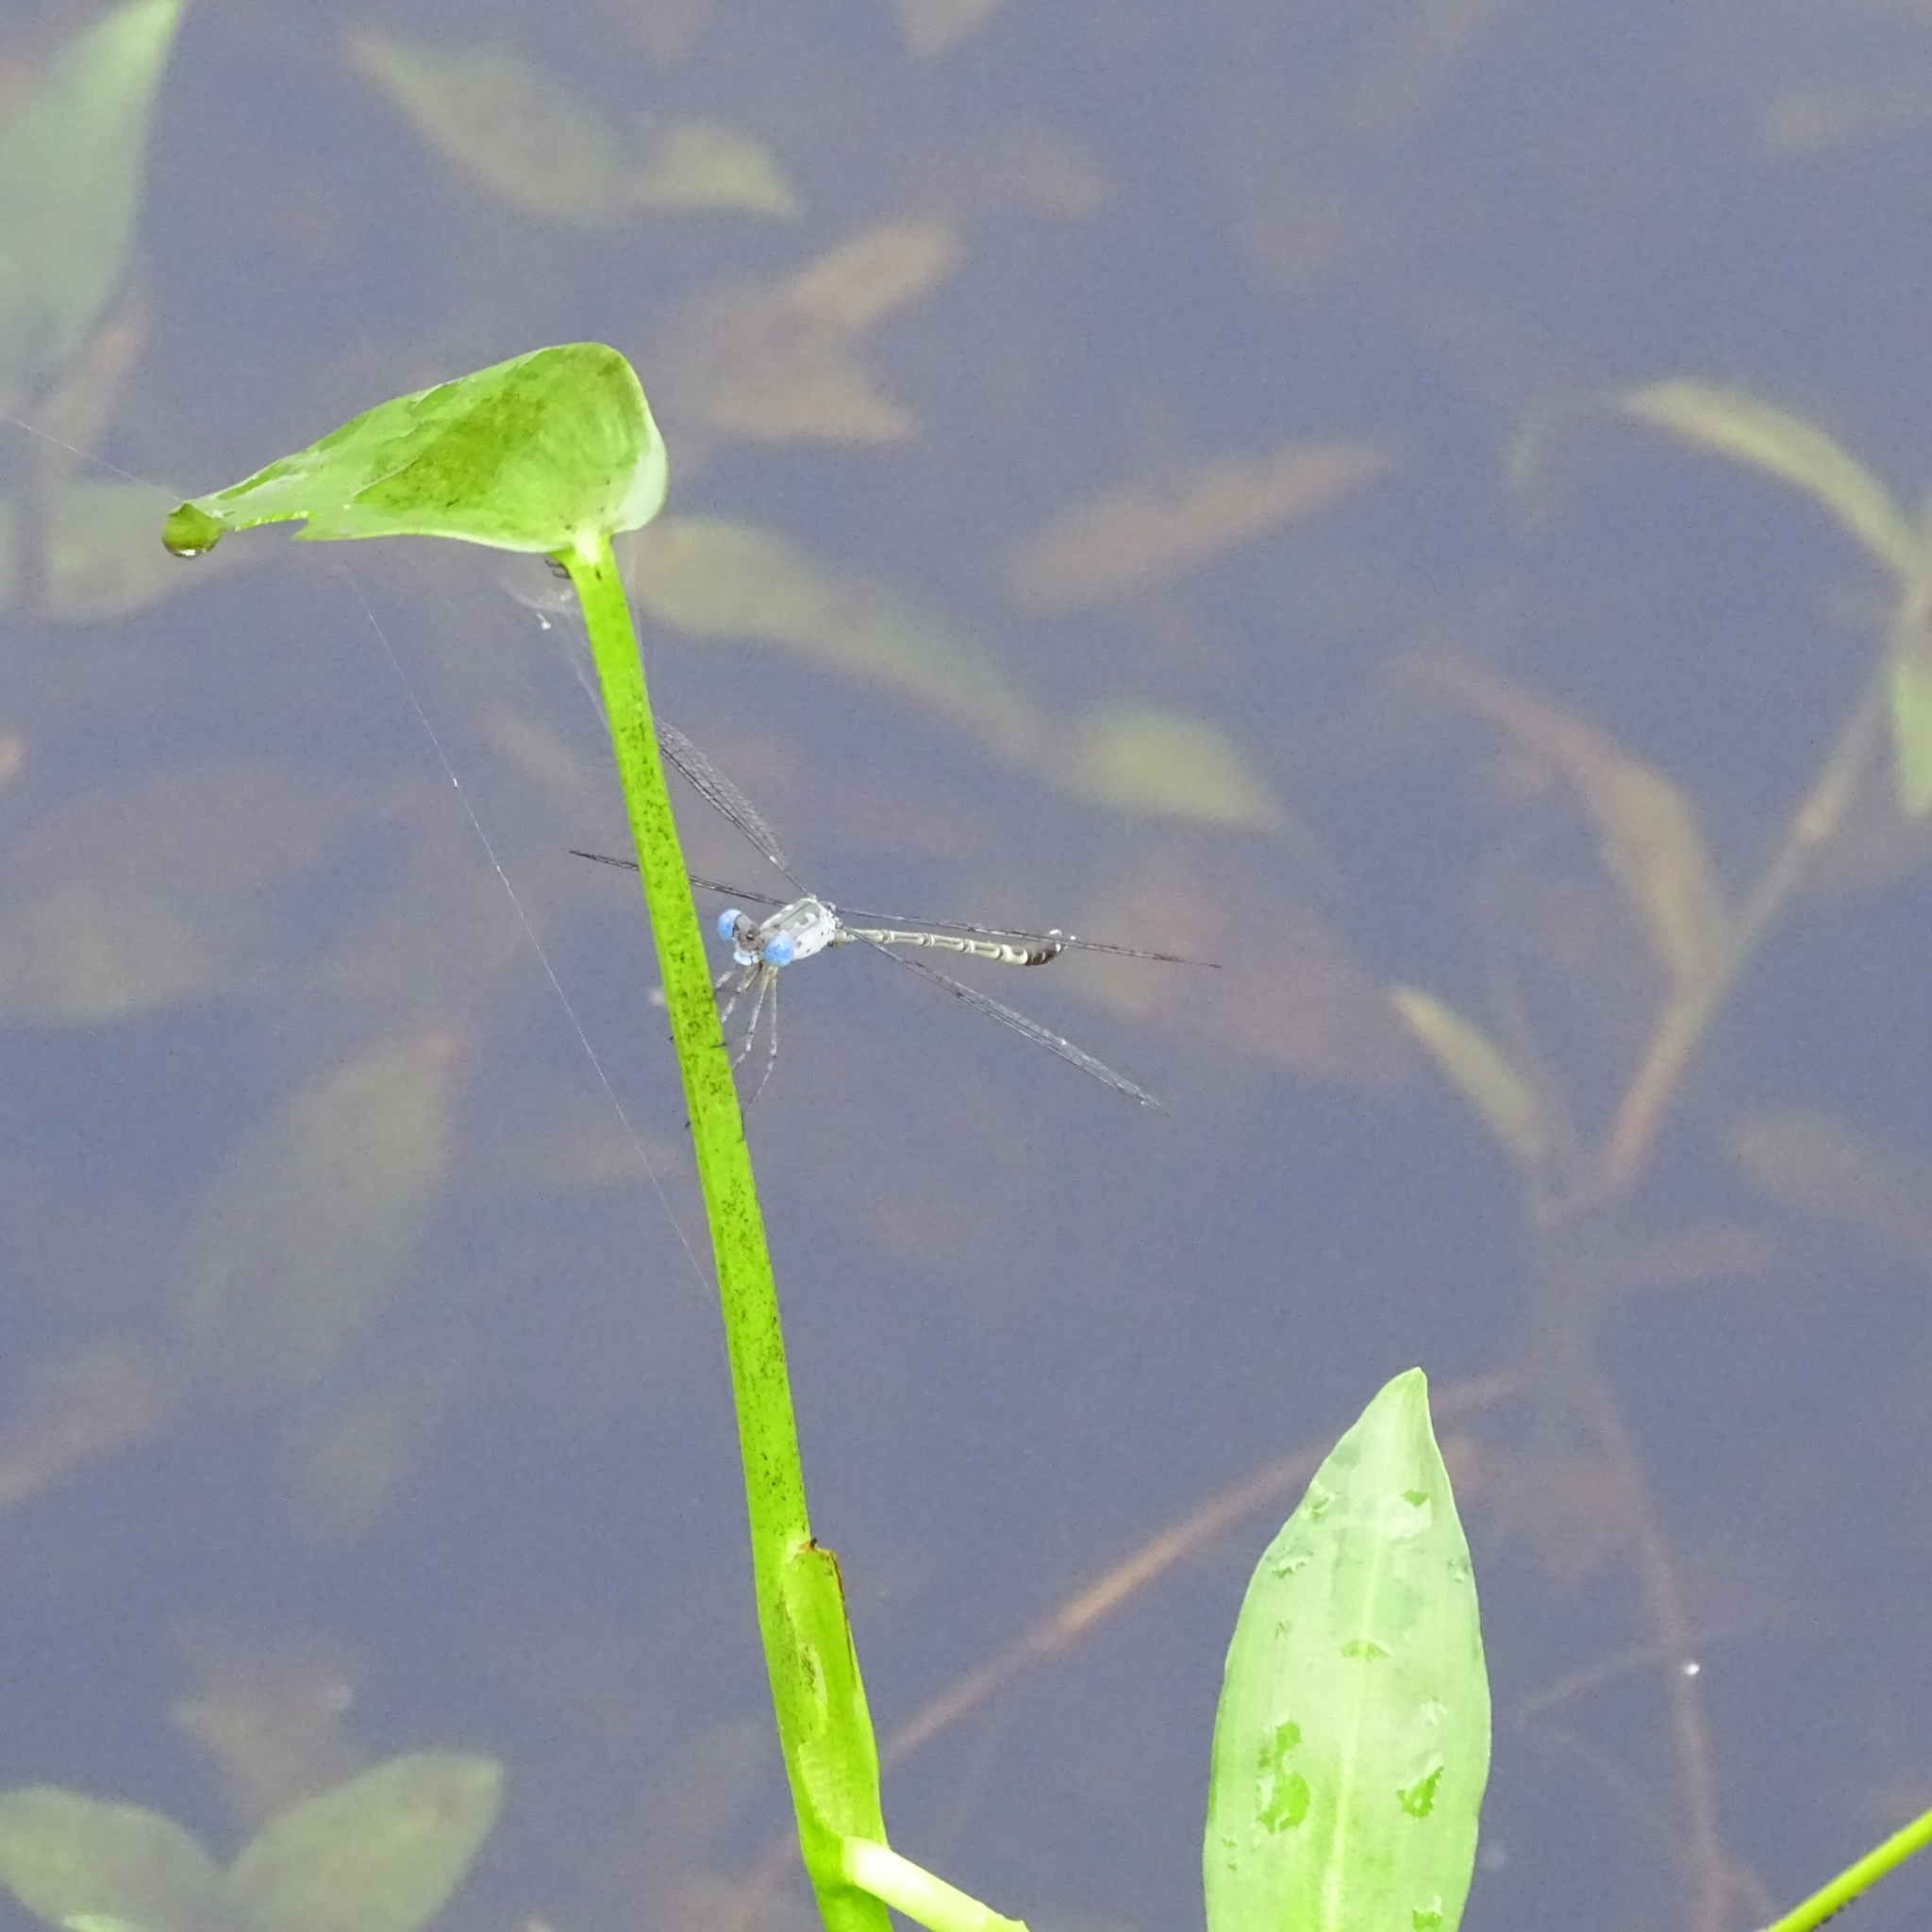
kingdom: Animalia
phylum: Arthropoda
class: Insecta
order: Odonata
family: Lestidae
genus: Lestes
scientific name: Lestes praemorsus
